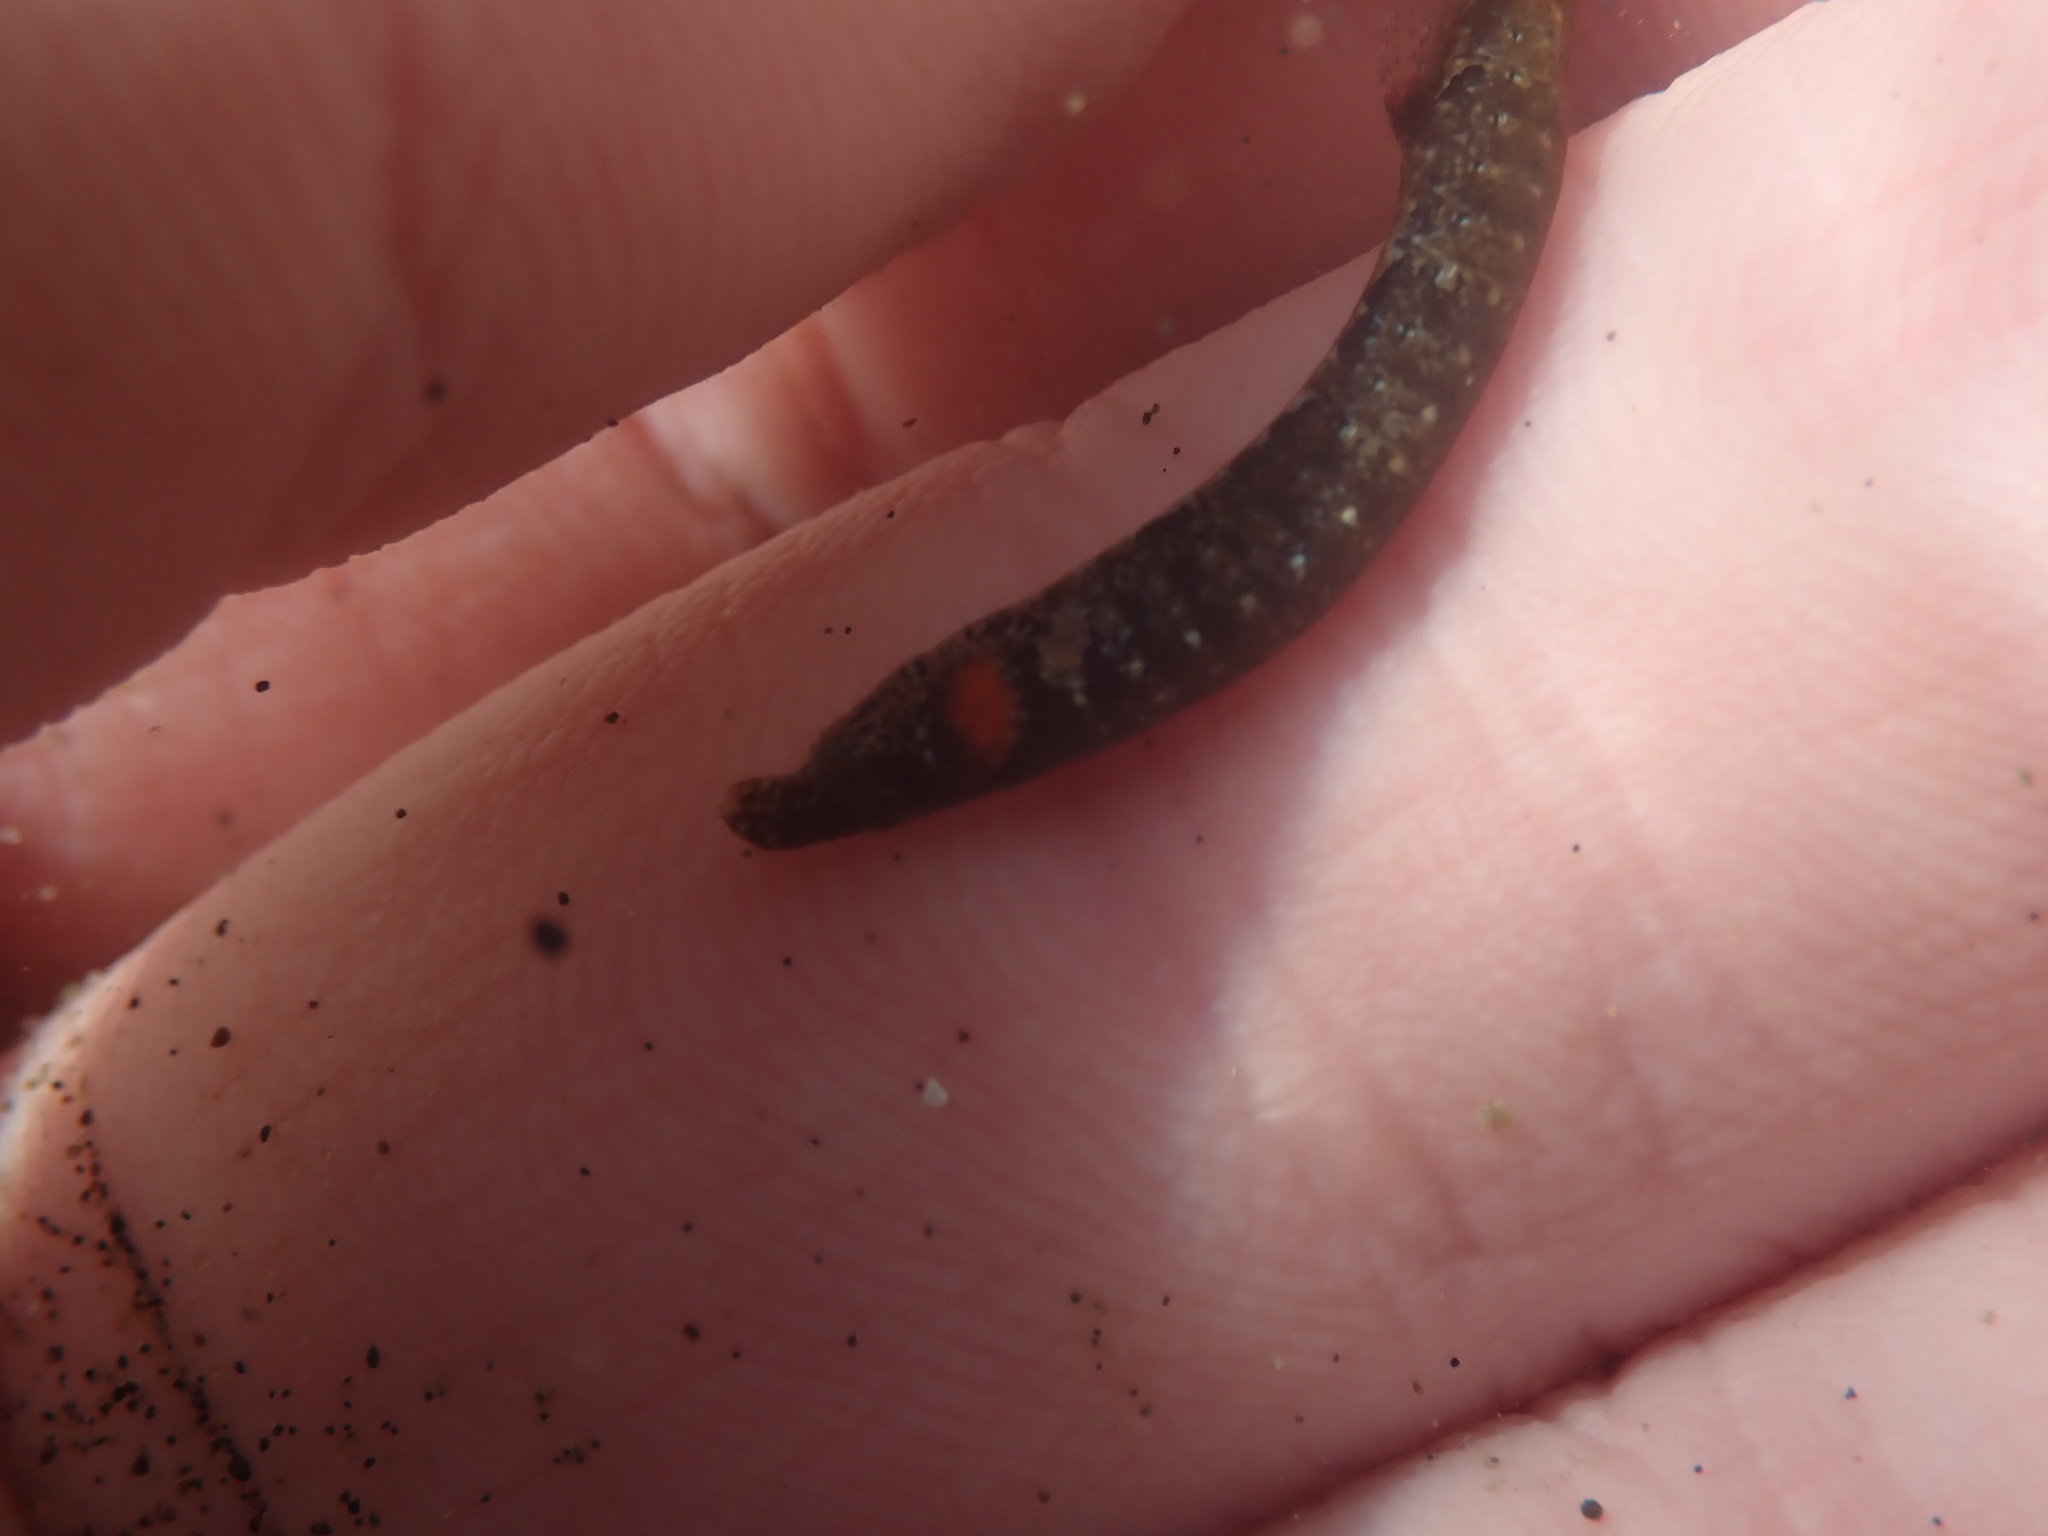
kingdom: Animalia
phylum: Chordata
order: Syngnathiformes
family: Syngnathidae
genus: Lissocampus
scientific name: Lissocampus filum
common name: Shortsnout pipefish
